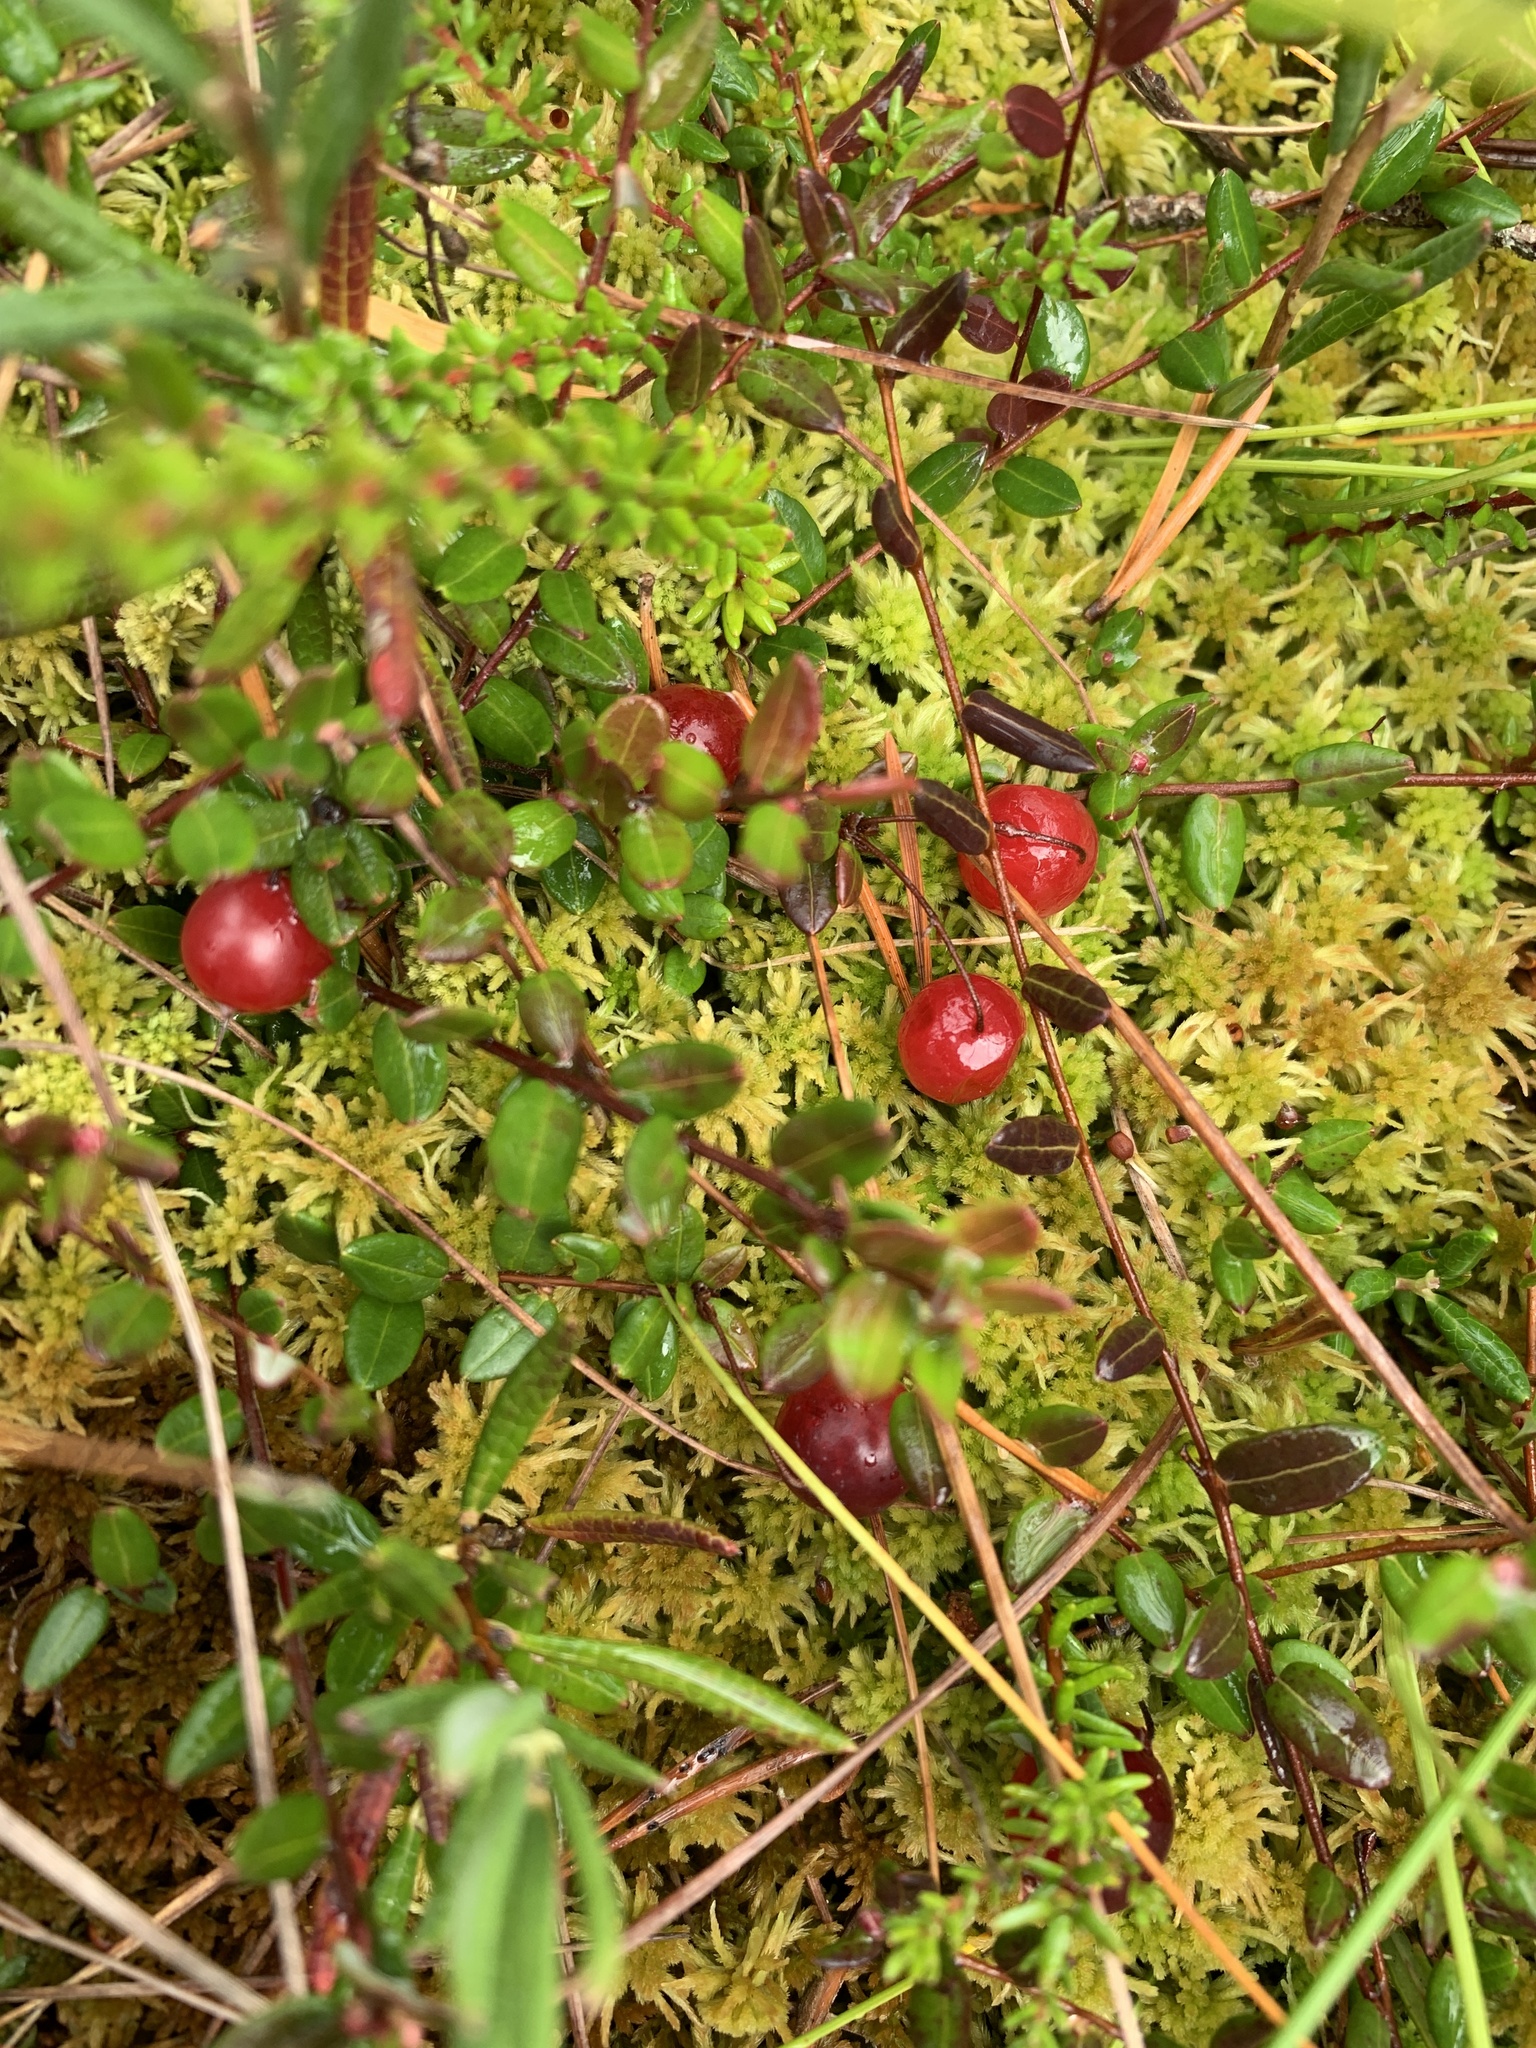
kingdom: Plantae
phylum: Tracheophyta
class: Magnoliopsida
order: Ericales
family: Ericaceae
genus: Vaccinium
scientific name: Vaccinium oxycoccos
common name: Cranberry
